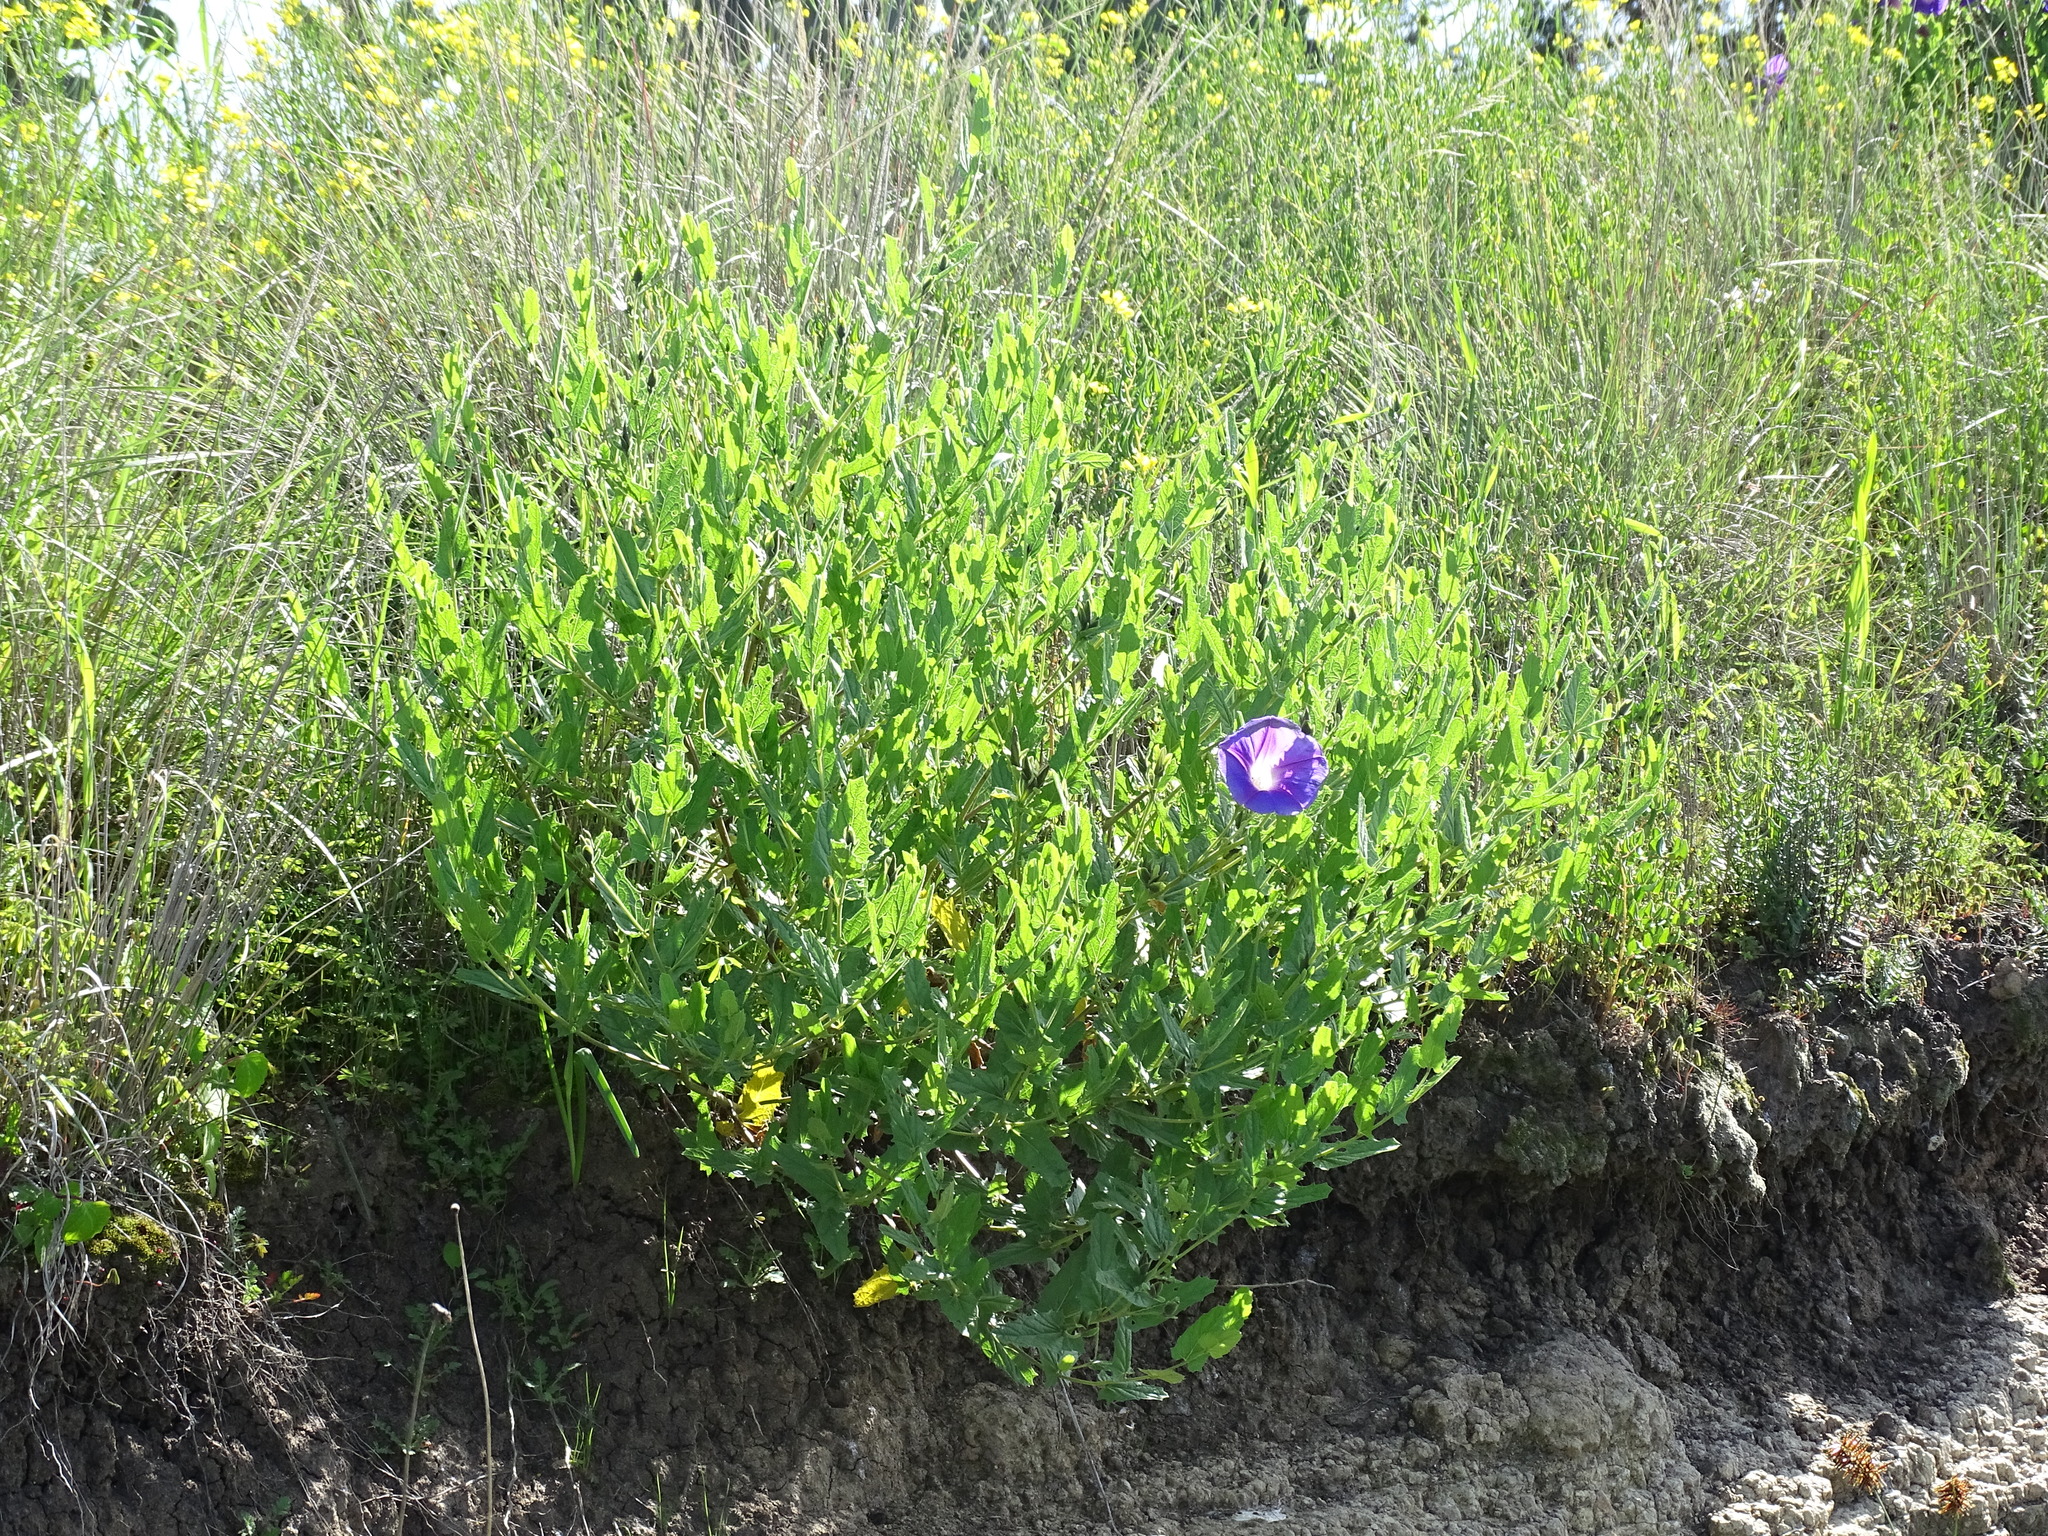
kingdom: Plantae
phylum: Tracheophyta
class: Magnoliopsida
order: Solanales
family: Convolvulaceae
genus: Ipomoea
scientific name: Ipomoea stans
